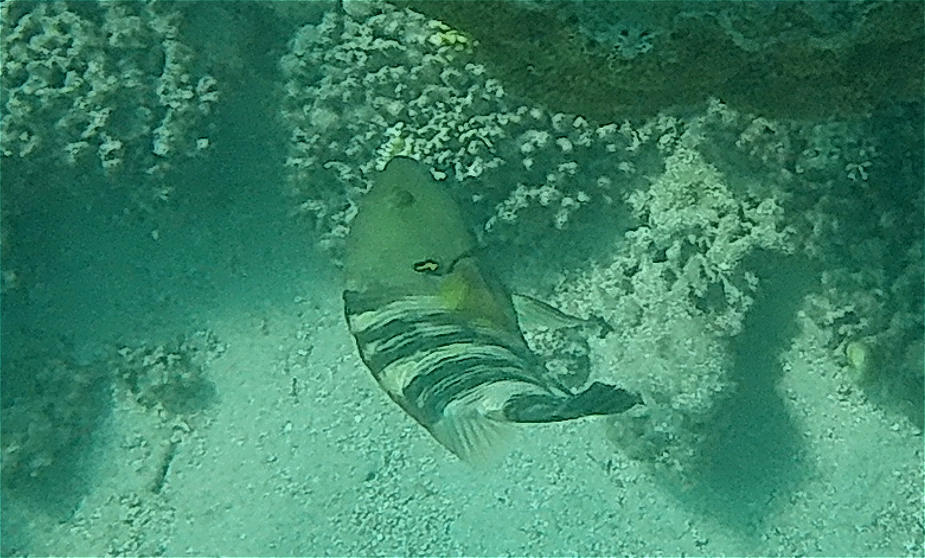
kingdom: Animalia
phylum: Chordata
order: Perciformes
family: Labridae
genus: Cheilinus
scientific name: Cheilinus lunulatus
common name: Broomtail wrasse
